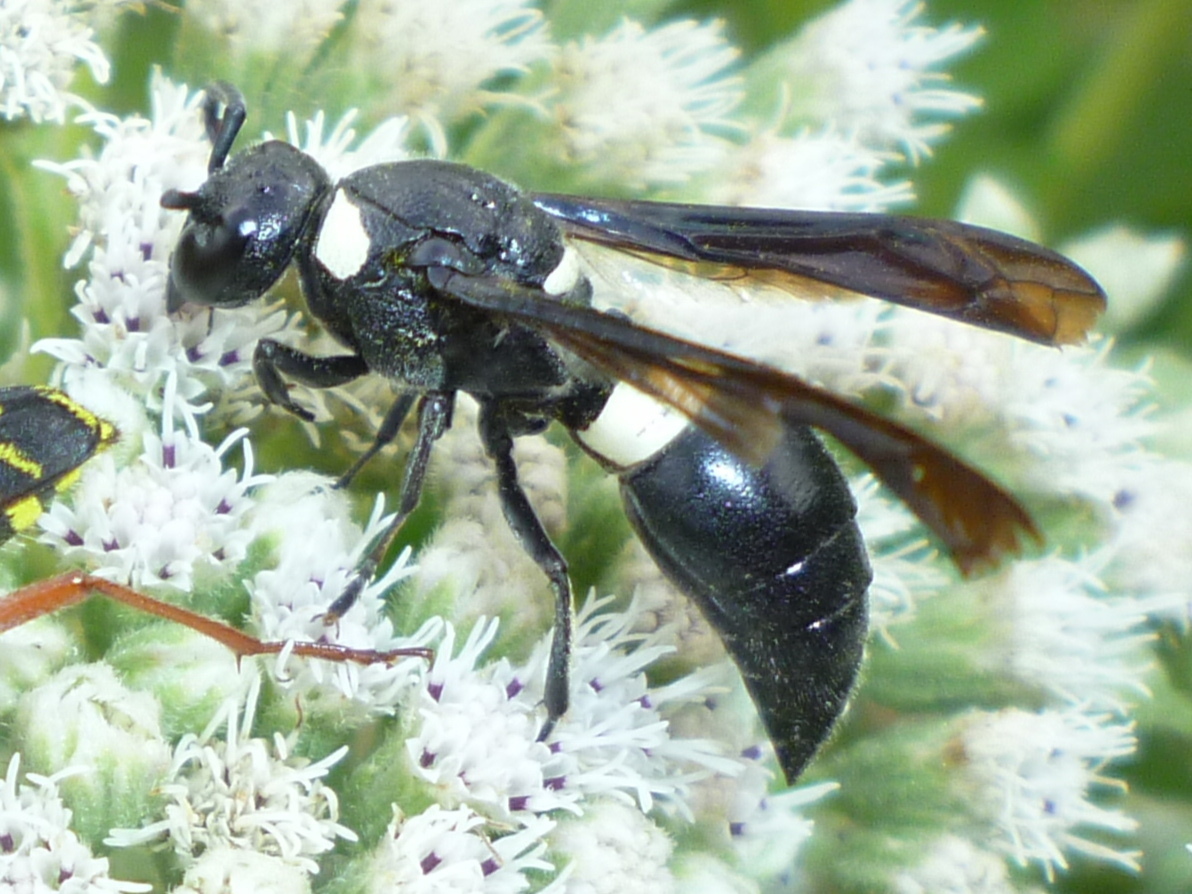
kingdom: Animalia
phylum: Arthropoda
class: Insecta
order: Hymenoptera
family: Eumenidae
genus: Monobia
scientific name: Monobia quadridens
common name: Four-toothed mason wasp
